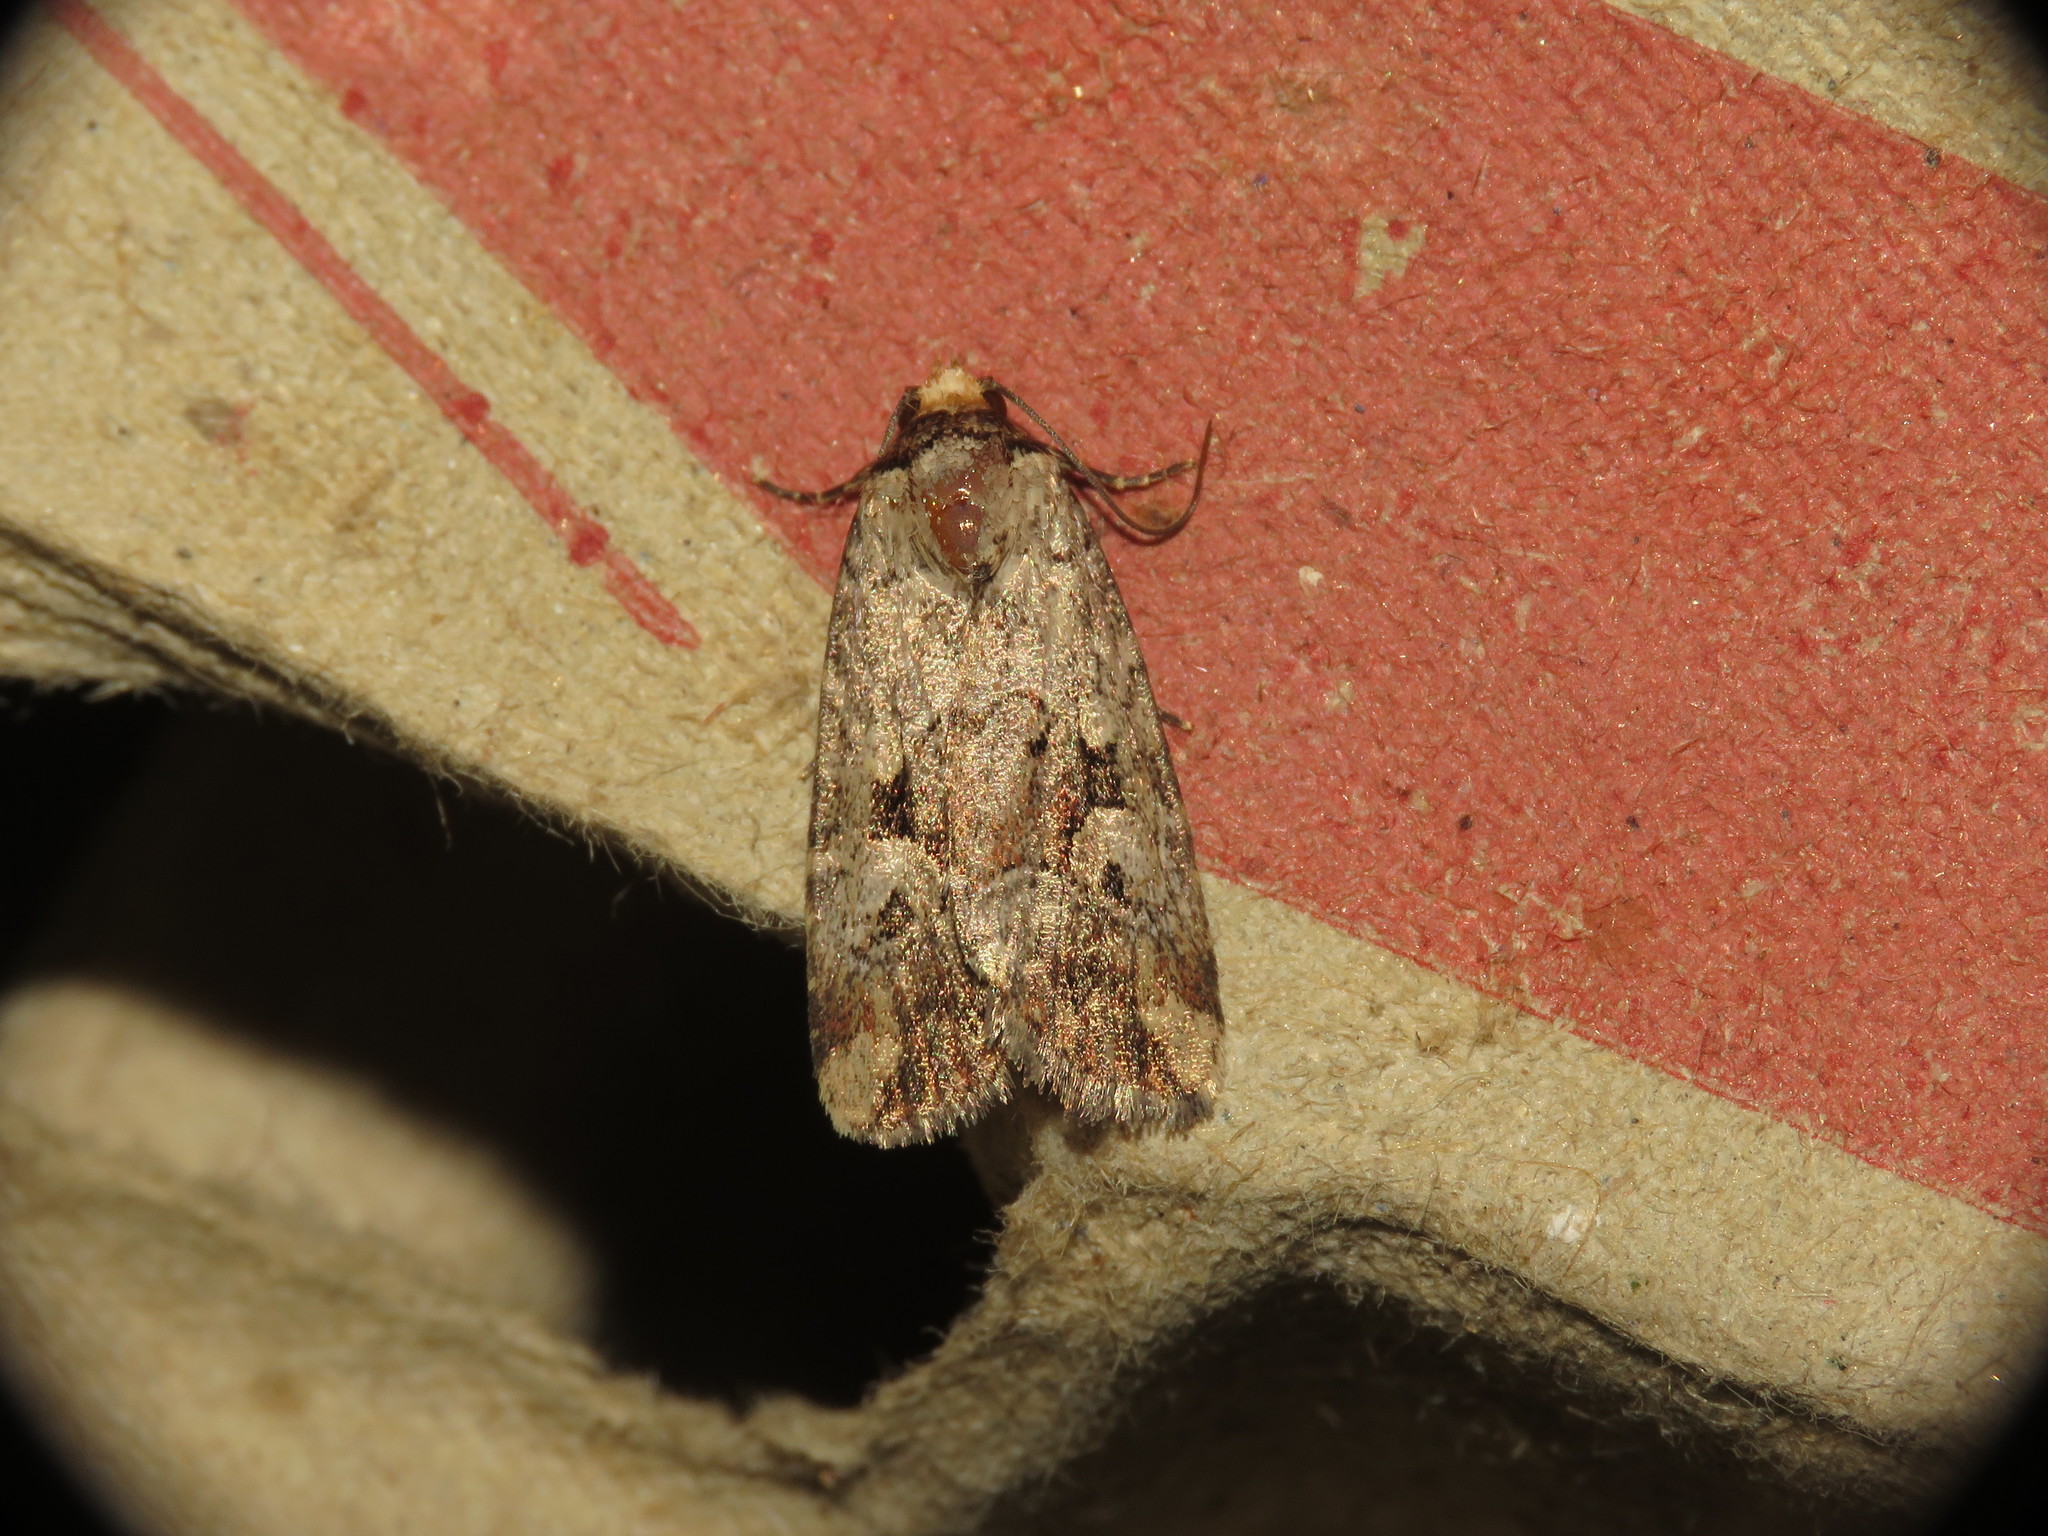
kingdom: Animalia
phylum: Arthropoda
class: Insecta
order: Lepidoptera
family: Noctuidae
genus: Elaphria
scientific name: Elaphria alapallida
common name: Pale-winged midget
